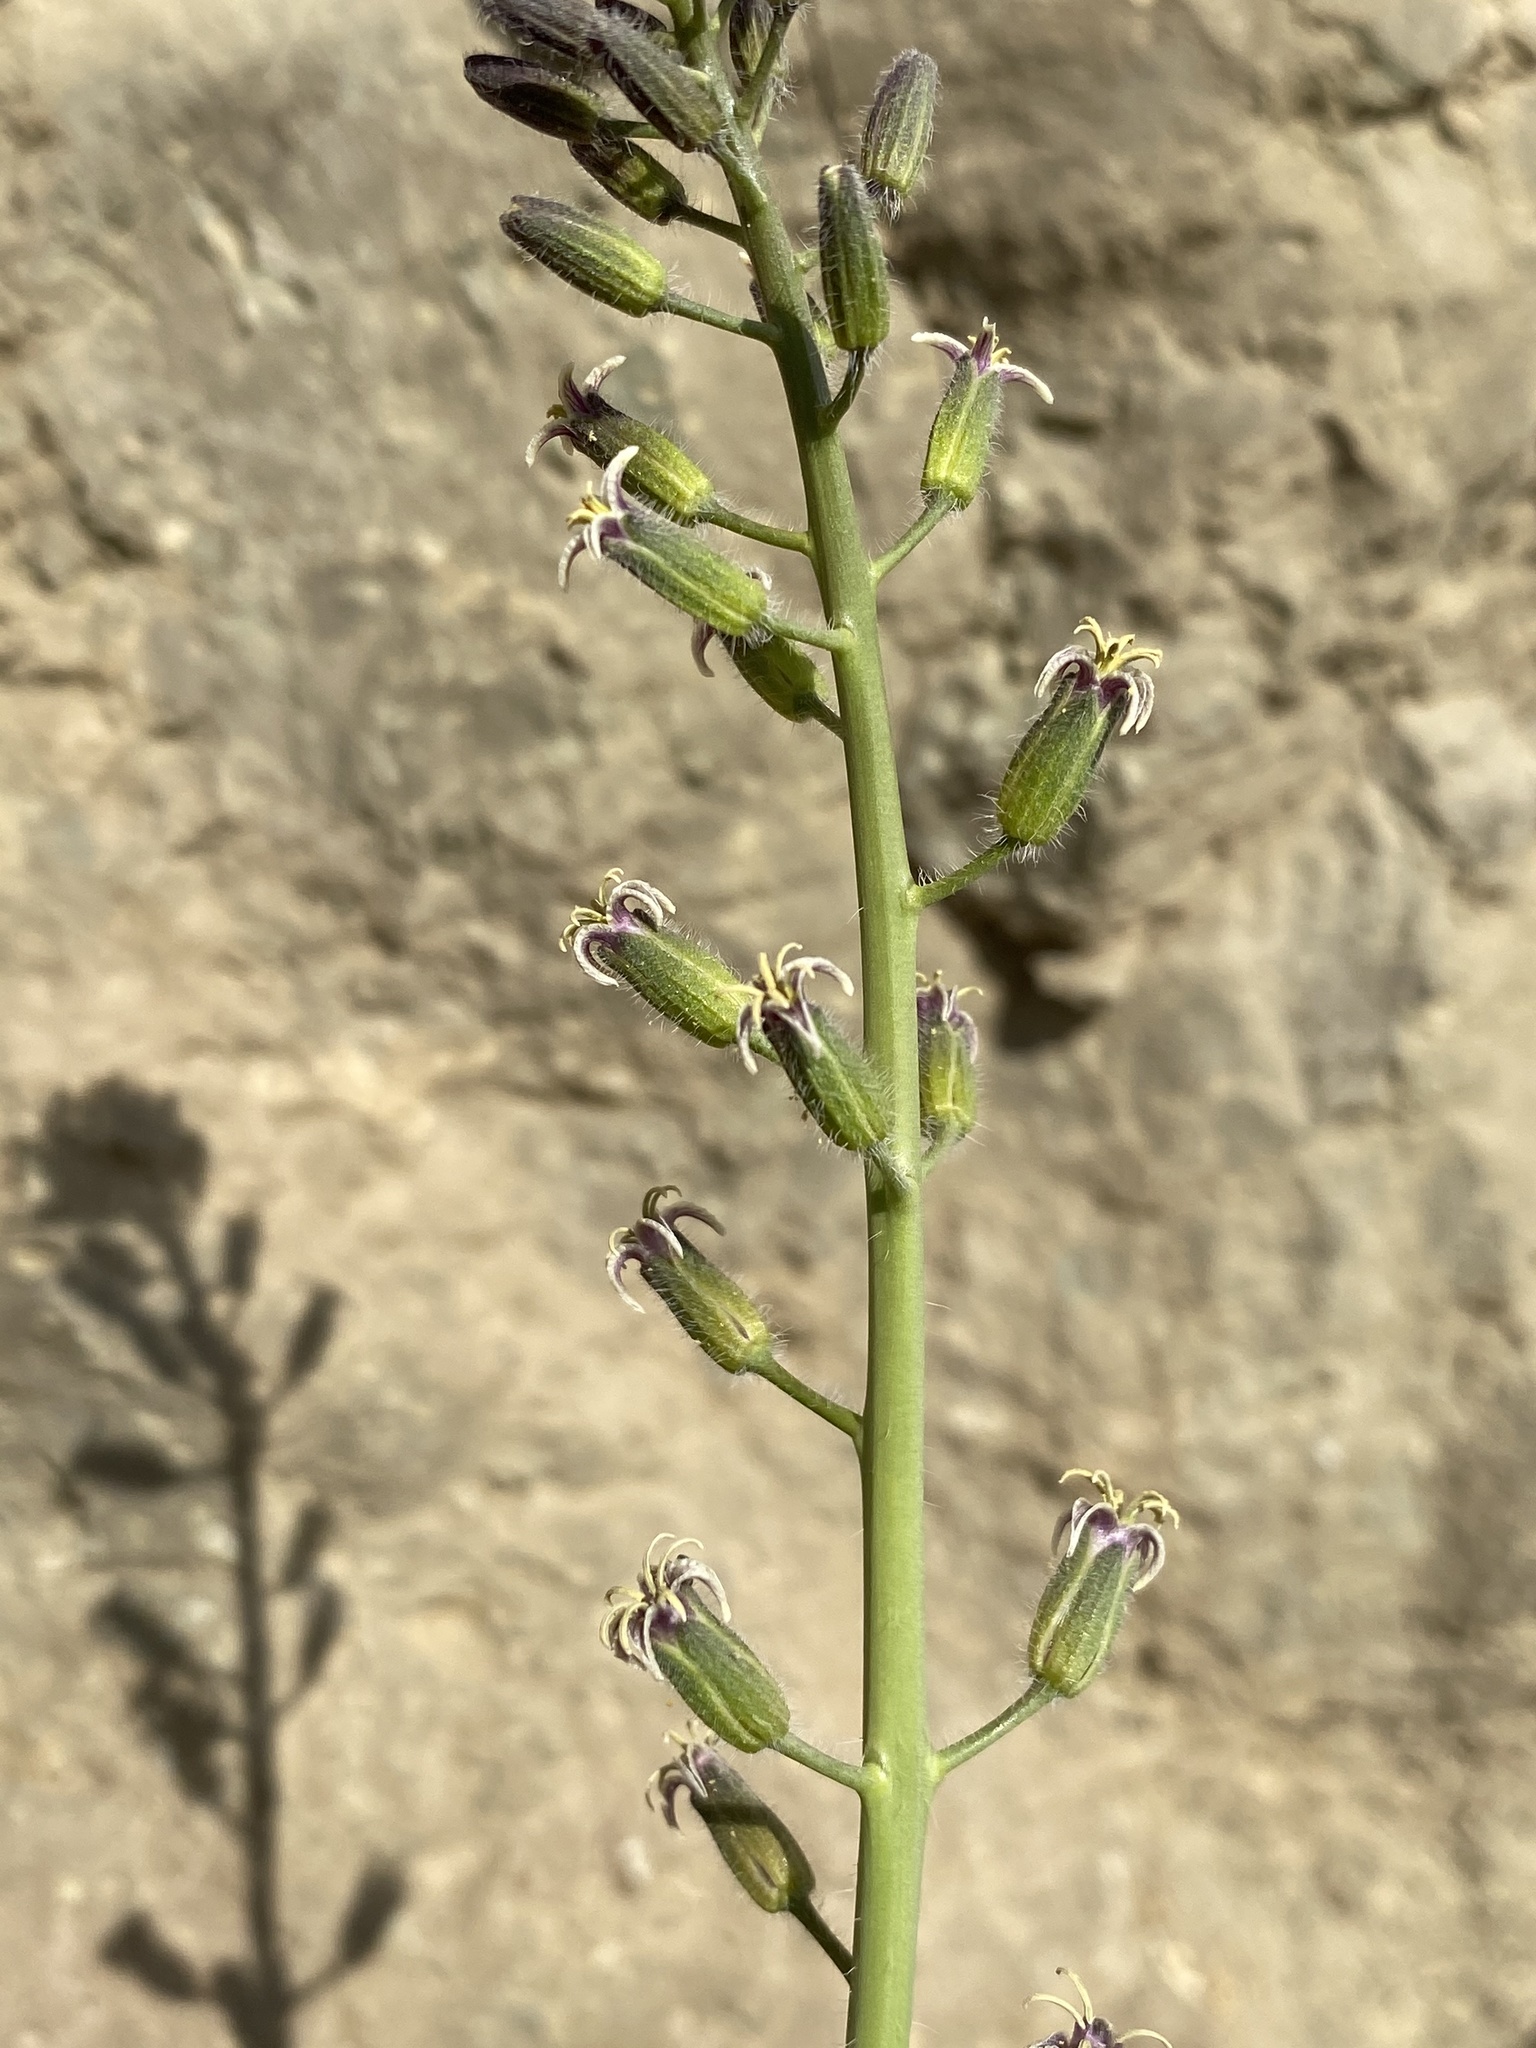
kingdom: Plantae
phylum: Tracheophyta
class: Magnoliopsida
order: Brassicales
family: Brassicaceae
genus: Streptanthus
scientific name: Streptanthus pilosus
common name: Chocolate drops
